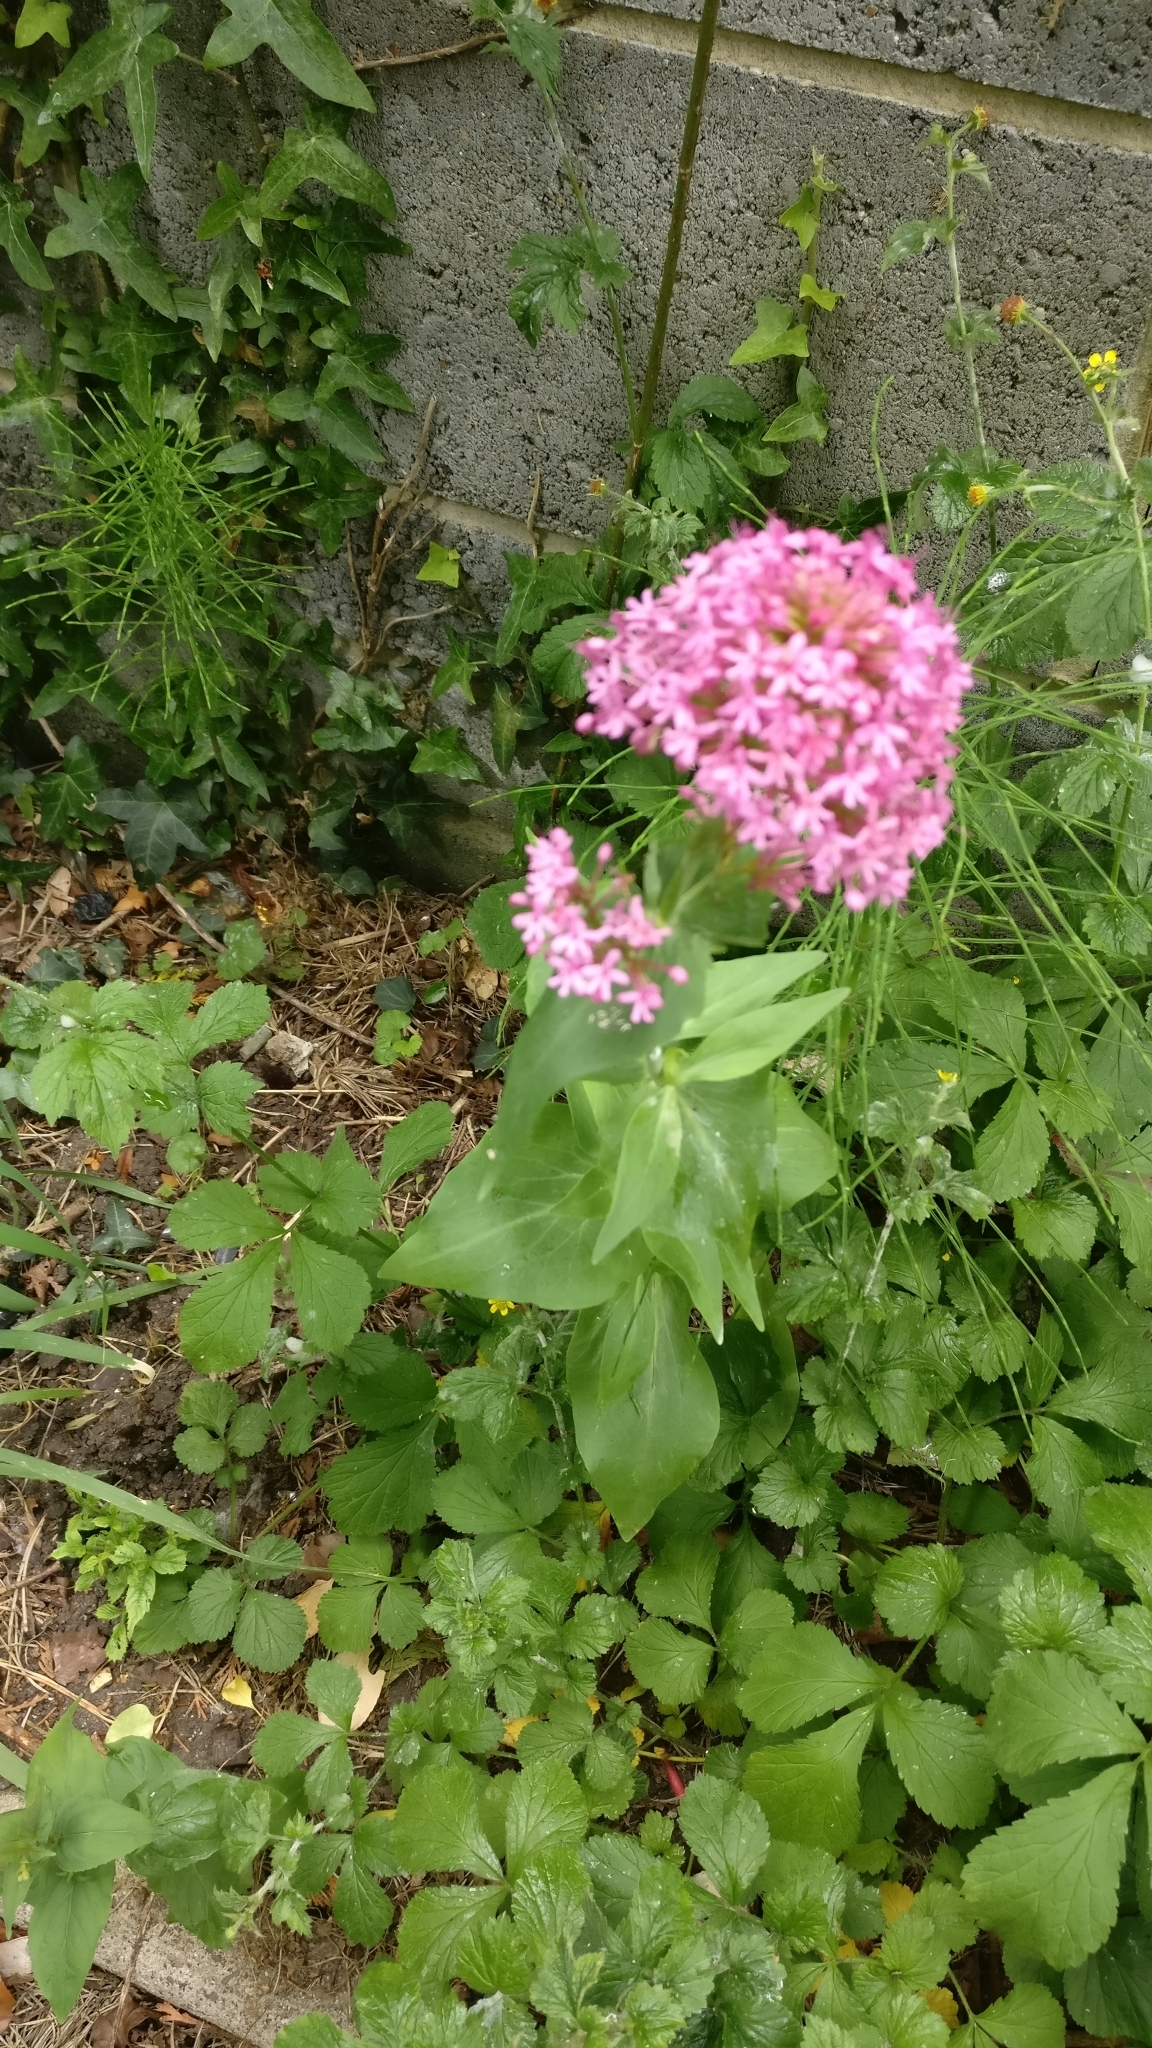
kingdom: Plantae
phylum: Tracheophyta
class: Magnoliopsida
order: Dipsacales
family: Caprifoliaceae
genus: Centranthus
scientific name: Centranthus ruber
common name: Red valerian
